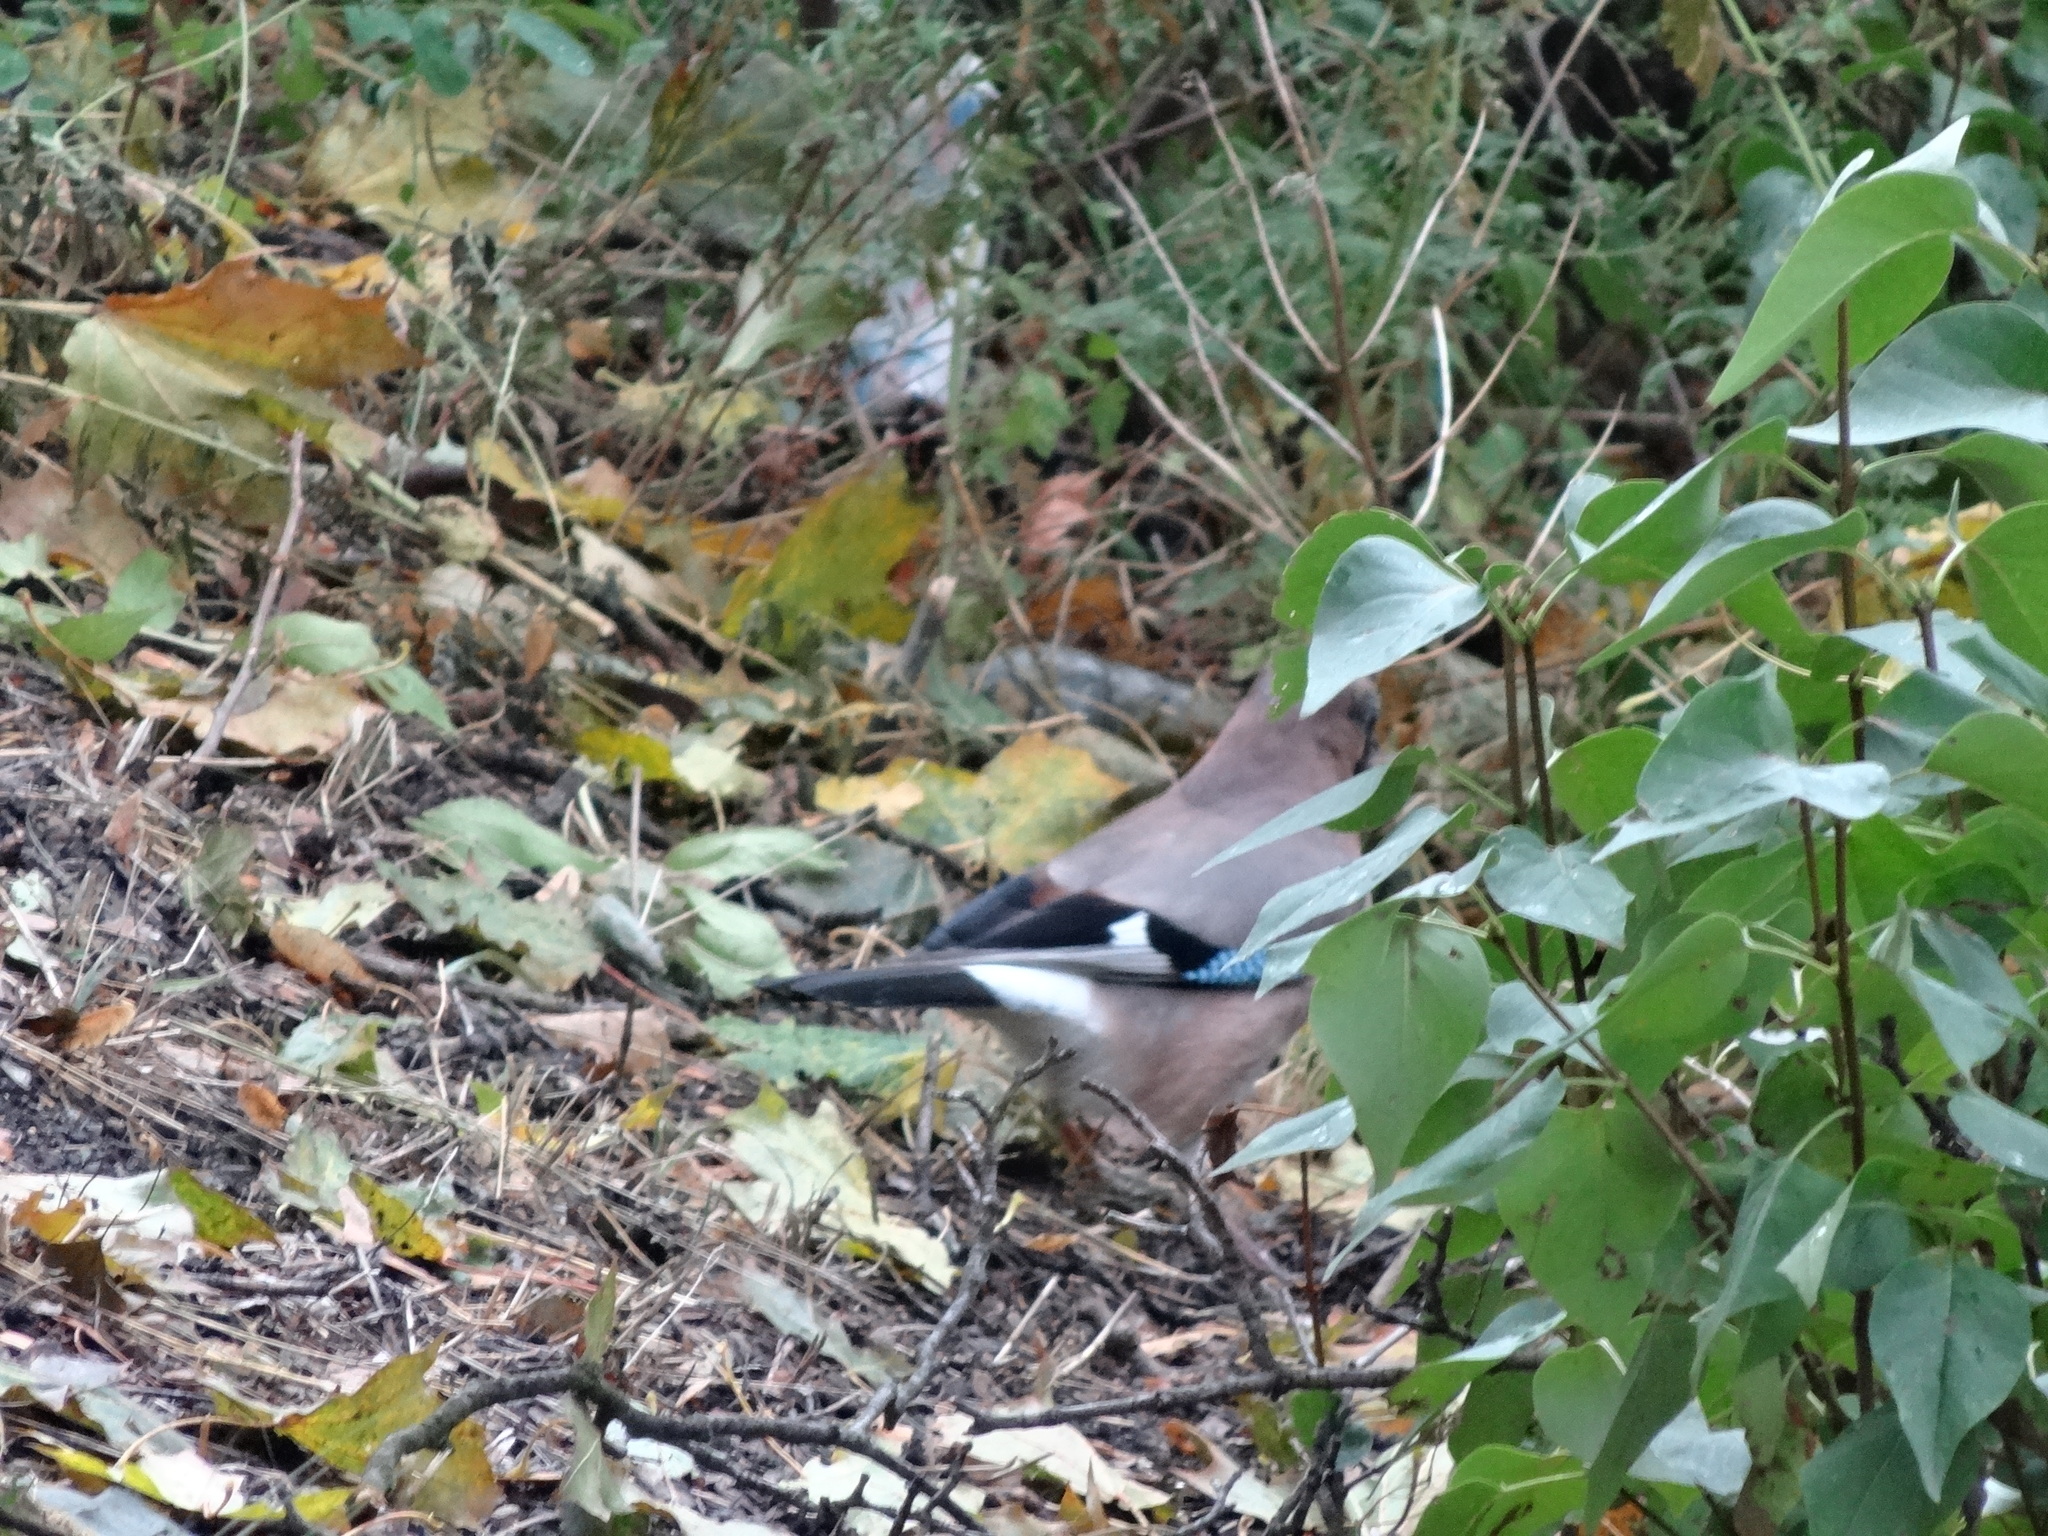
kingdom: Animalia
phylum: Chordata
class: Aves
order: Passeriformes
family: Corvidae
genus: Garrulus
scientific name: Garrulus glandarius
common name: Eurasian jay
